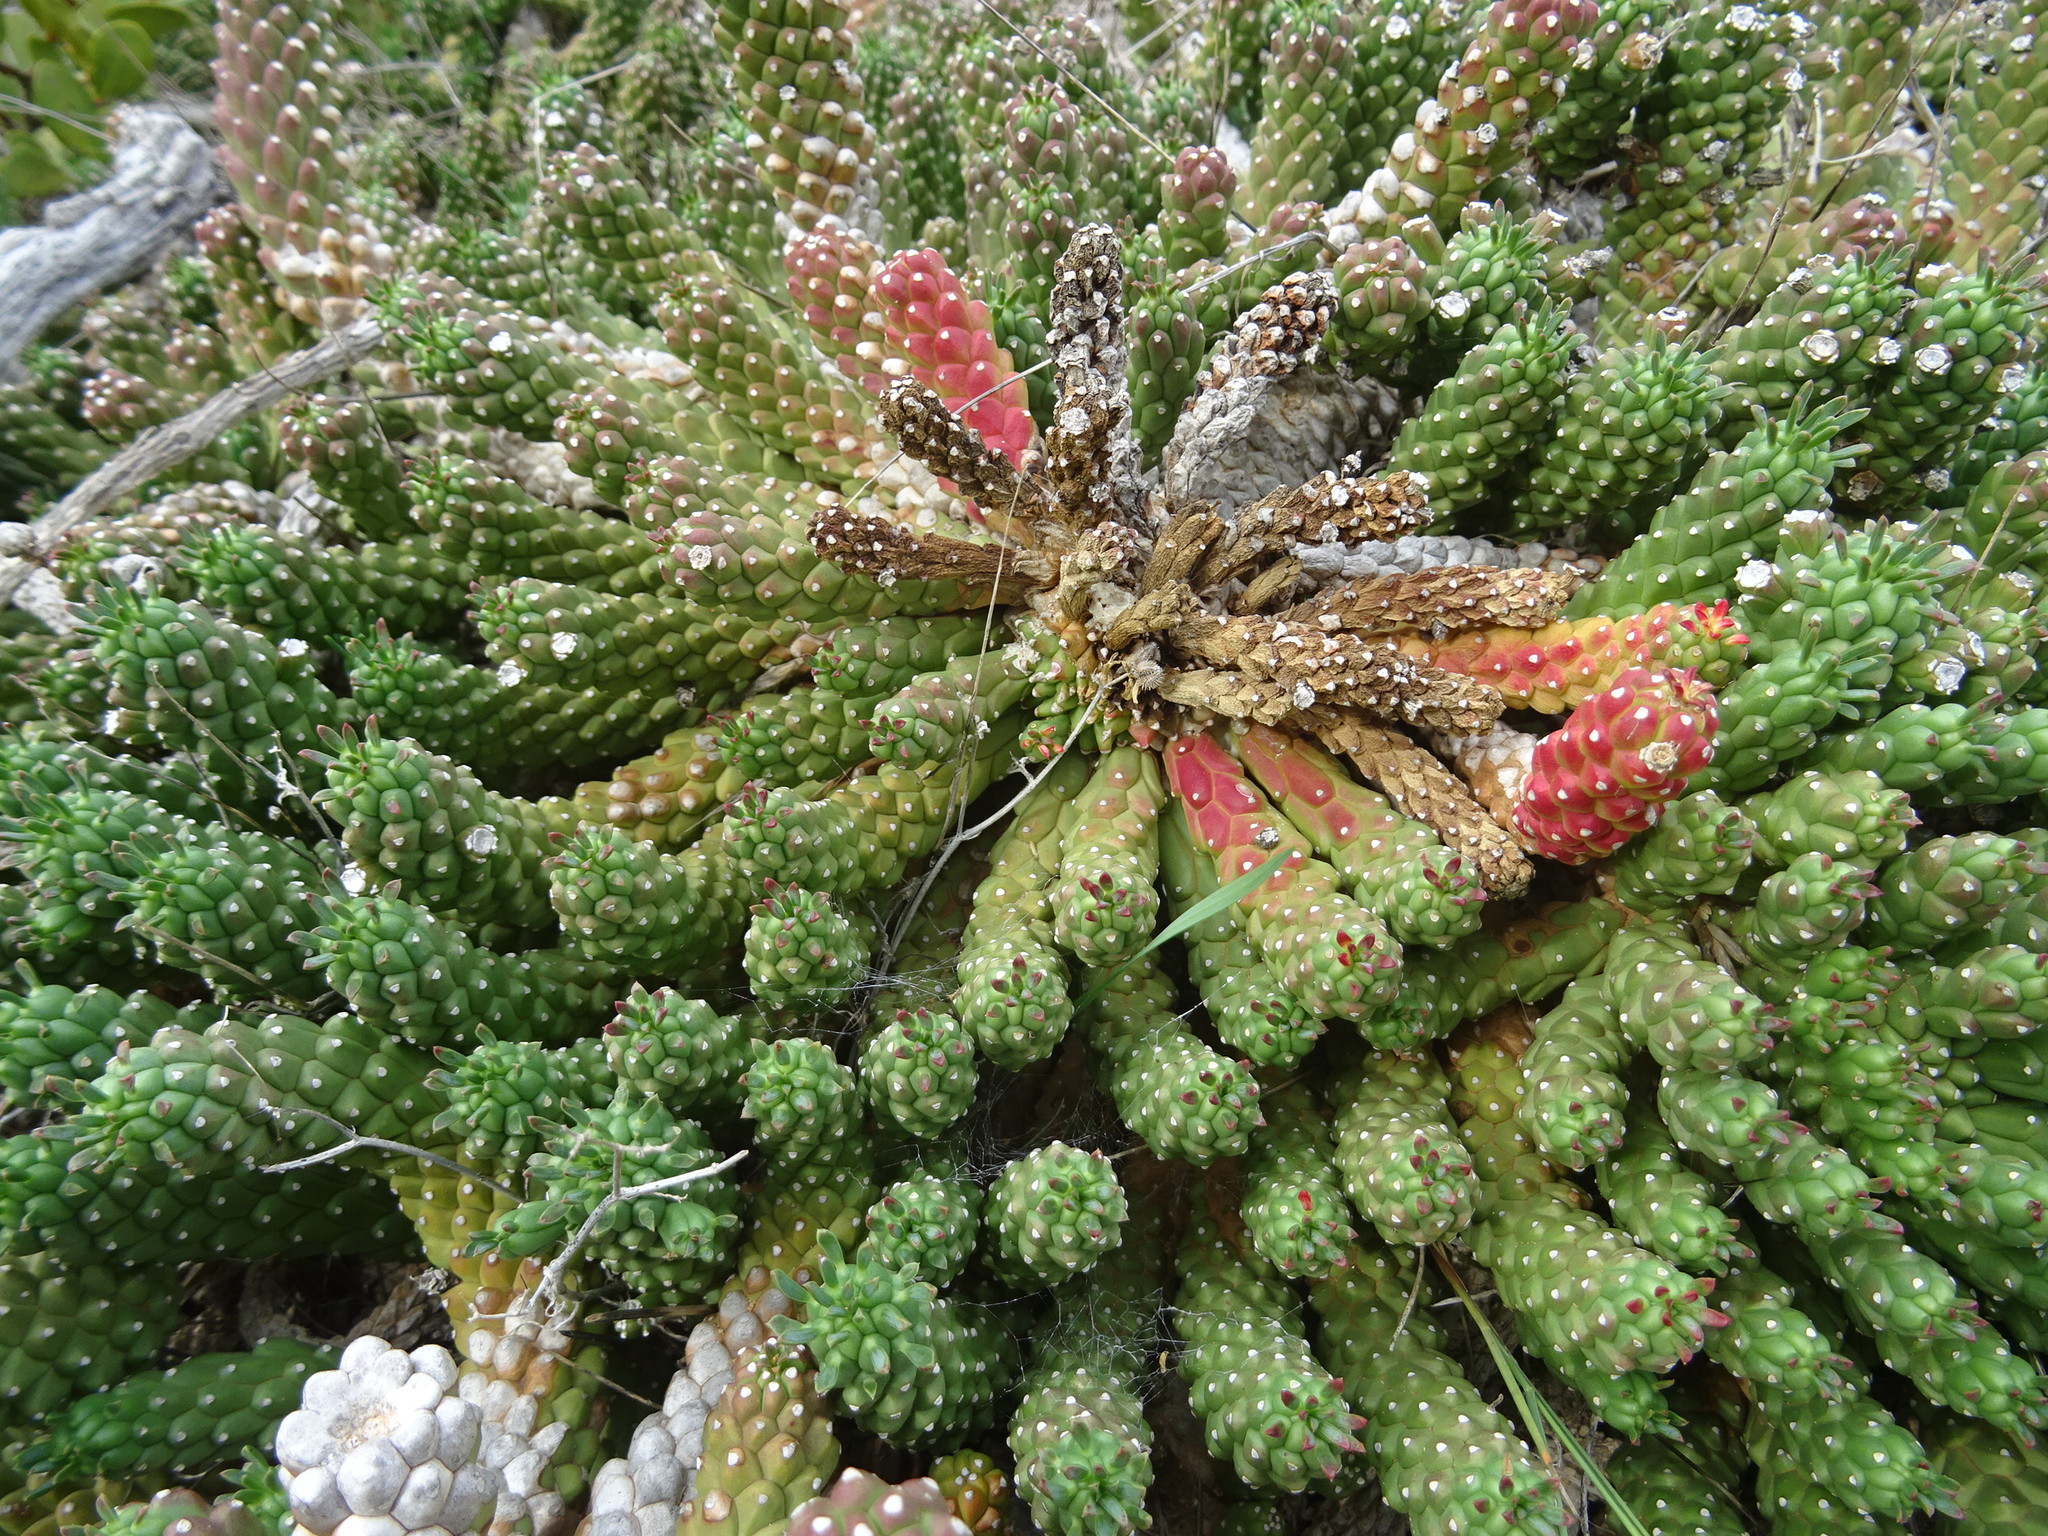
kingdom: Plantae
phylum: Tracheophyta
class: Magnoliopsida
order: Malpighiales
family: Euphorbiaceae
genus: Euphorbia
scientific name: Euphorbia caput-medusae
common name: Medusa's-head
